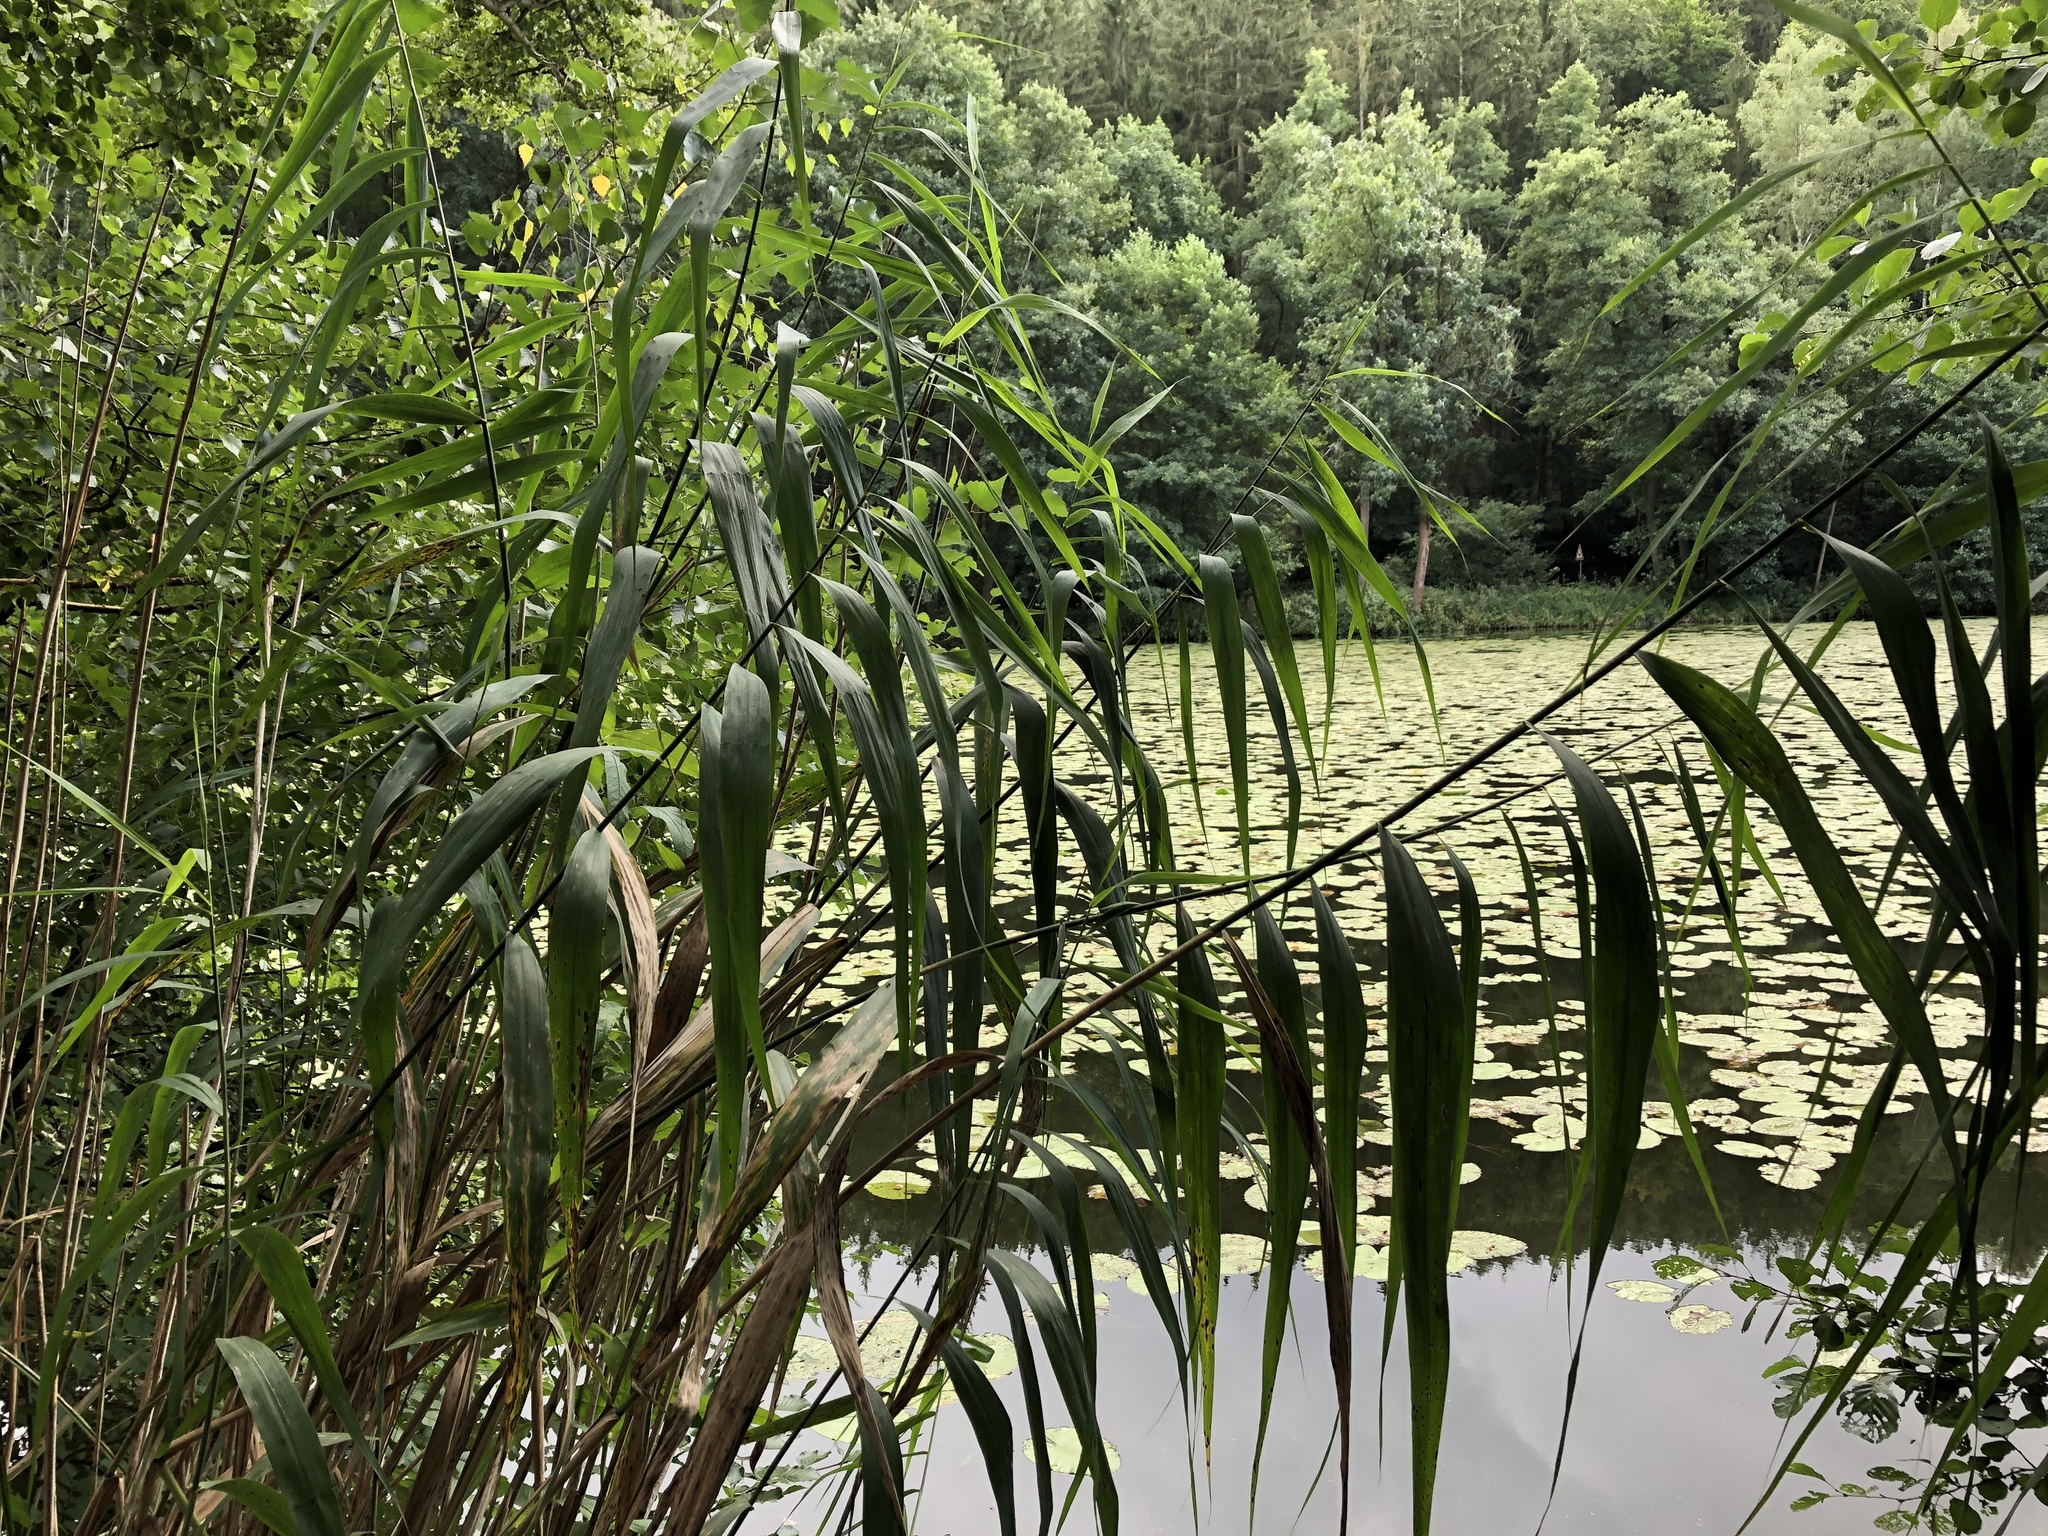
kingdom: Plantae
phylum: Tracheophyta
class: Liliopsida
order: Poales
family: Poaceae
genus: Phragmites
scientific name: Phragmites australis
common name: Common reed
